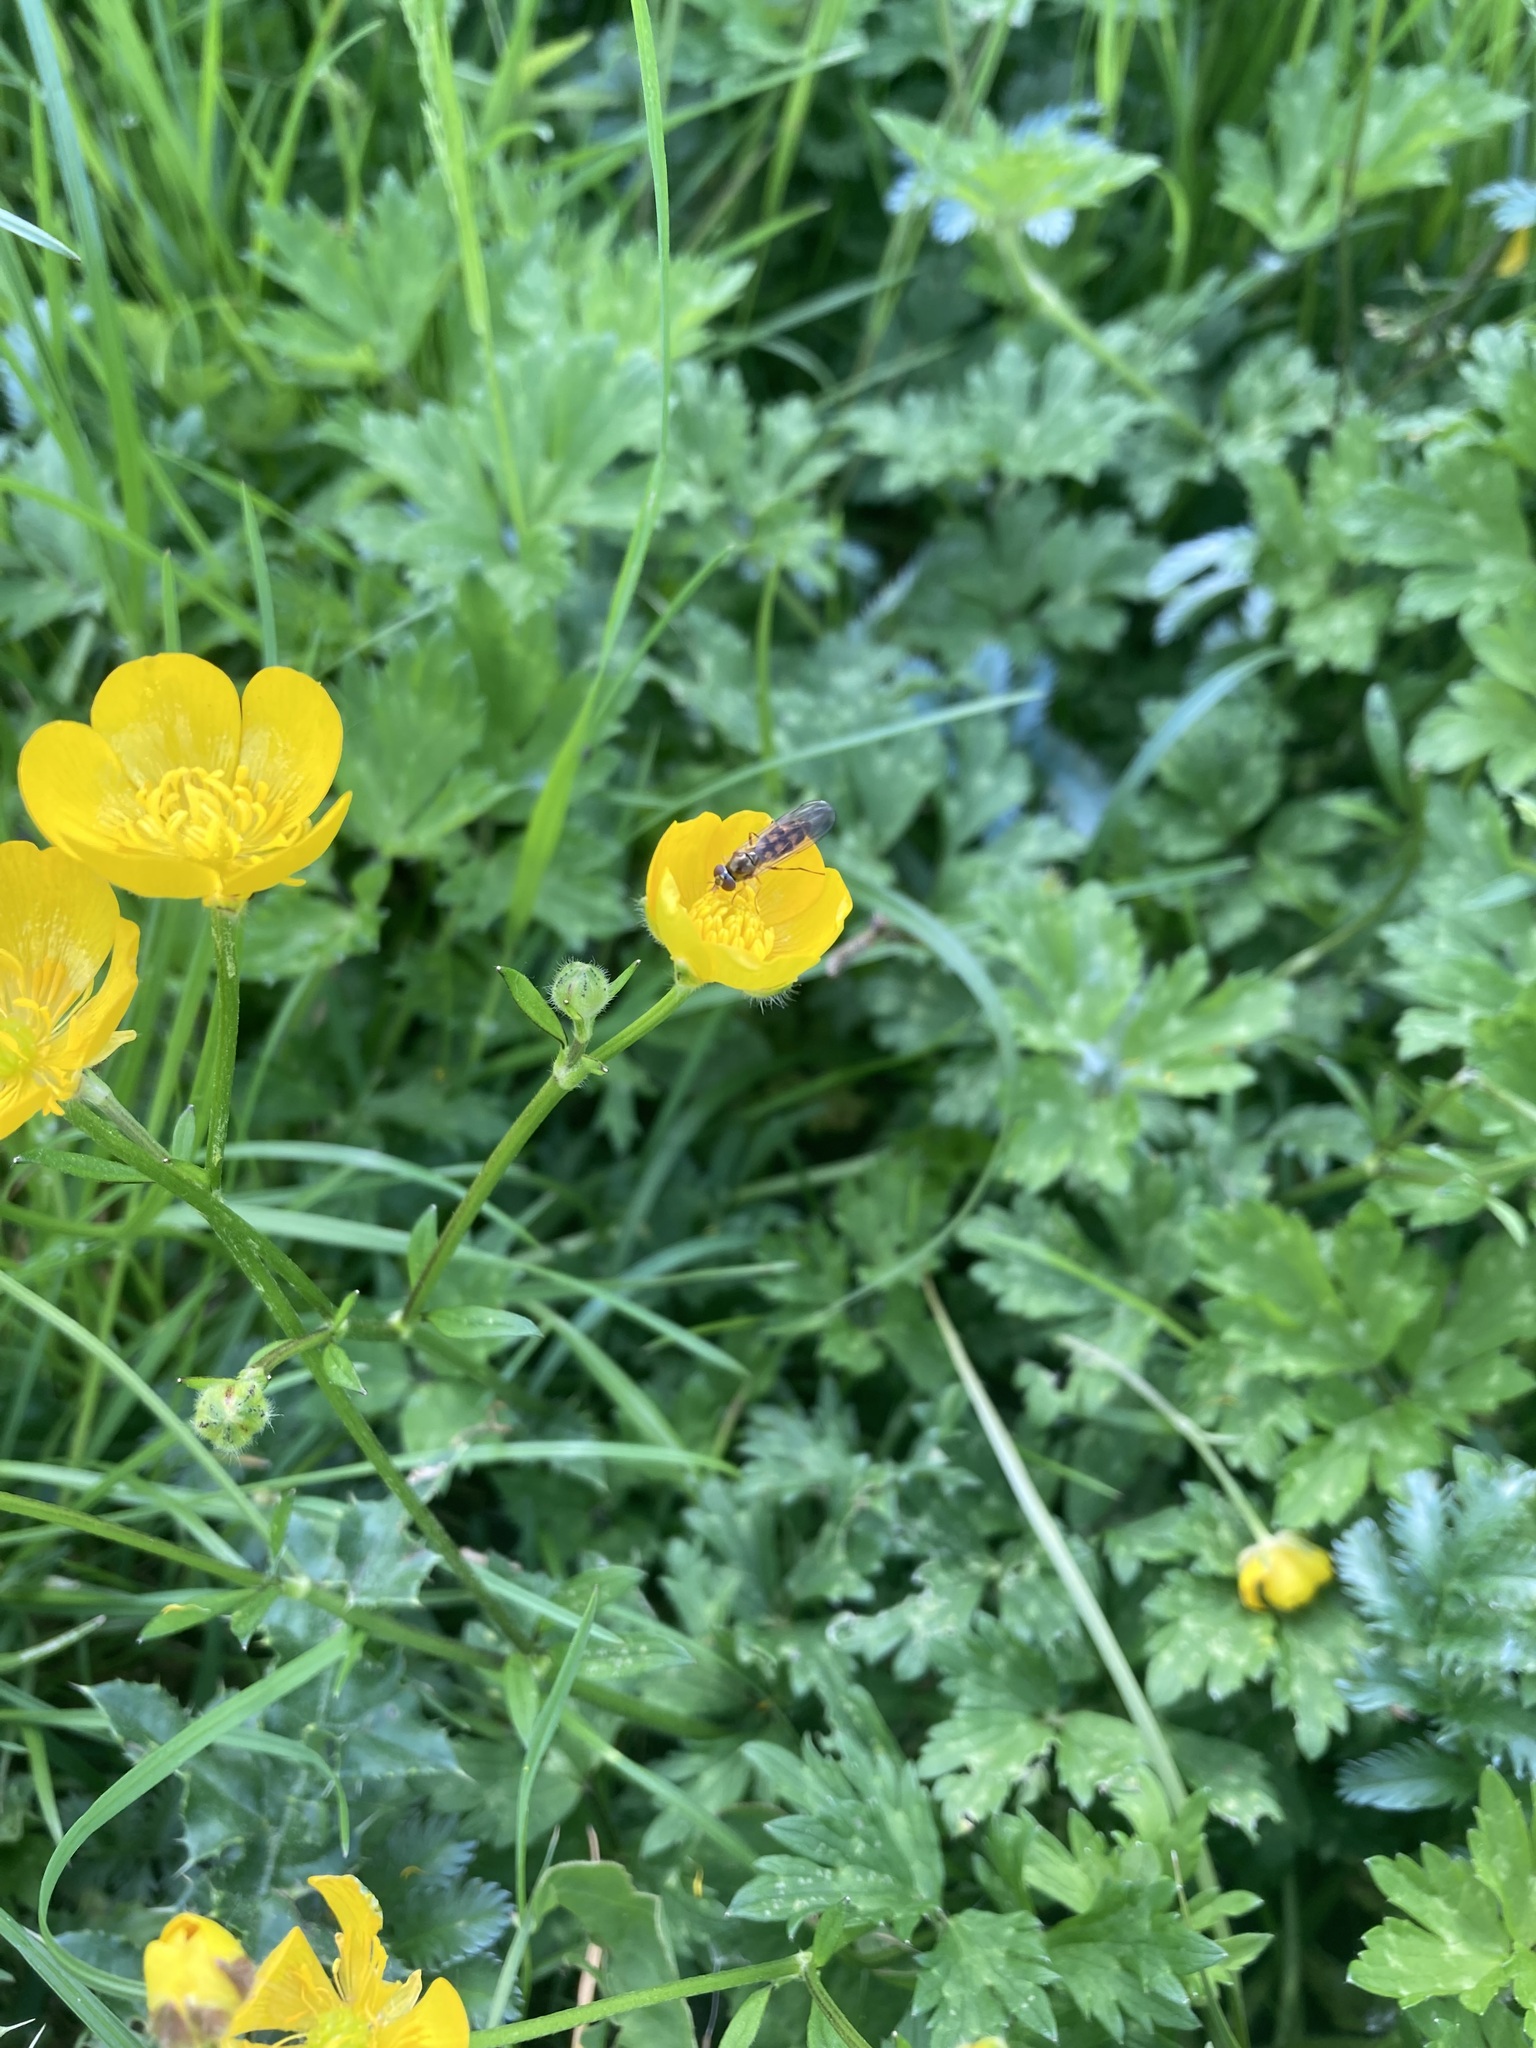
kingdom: Animalia
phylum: Arthropoda
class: Insecta
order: Diptera
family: Syrphidae
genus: Melanostoma
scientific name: Melanostoma
